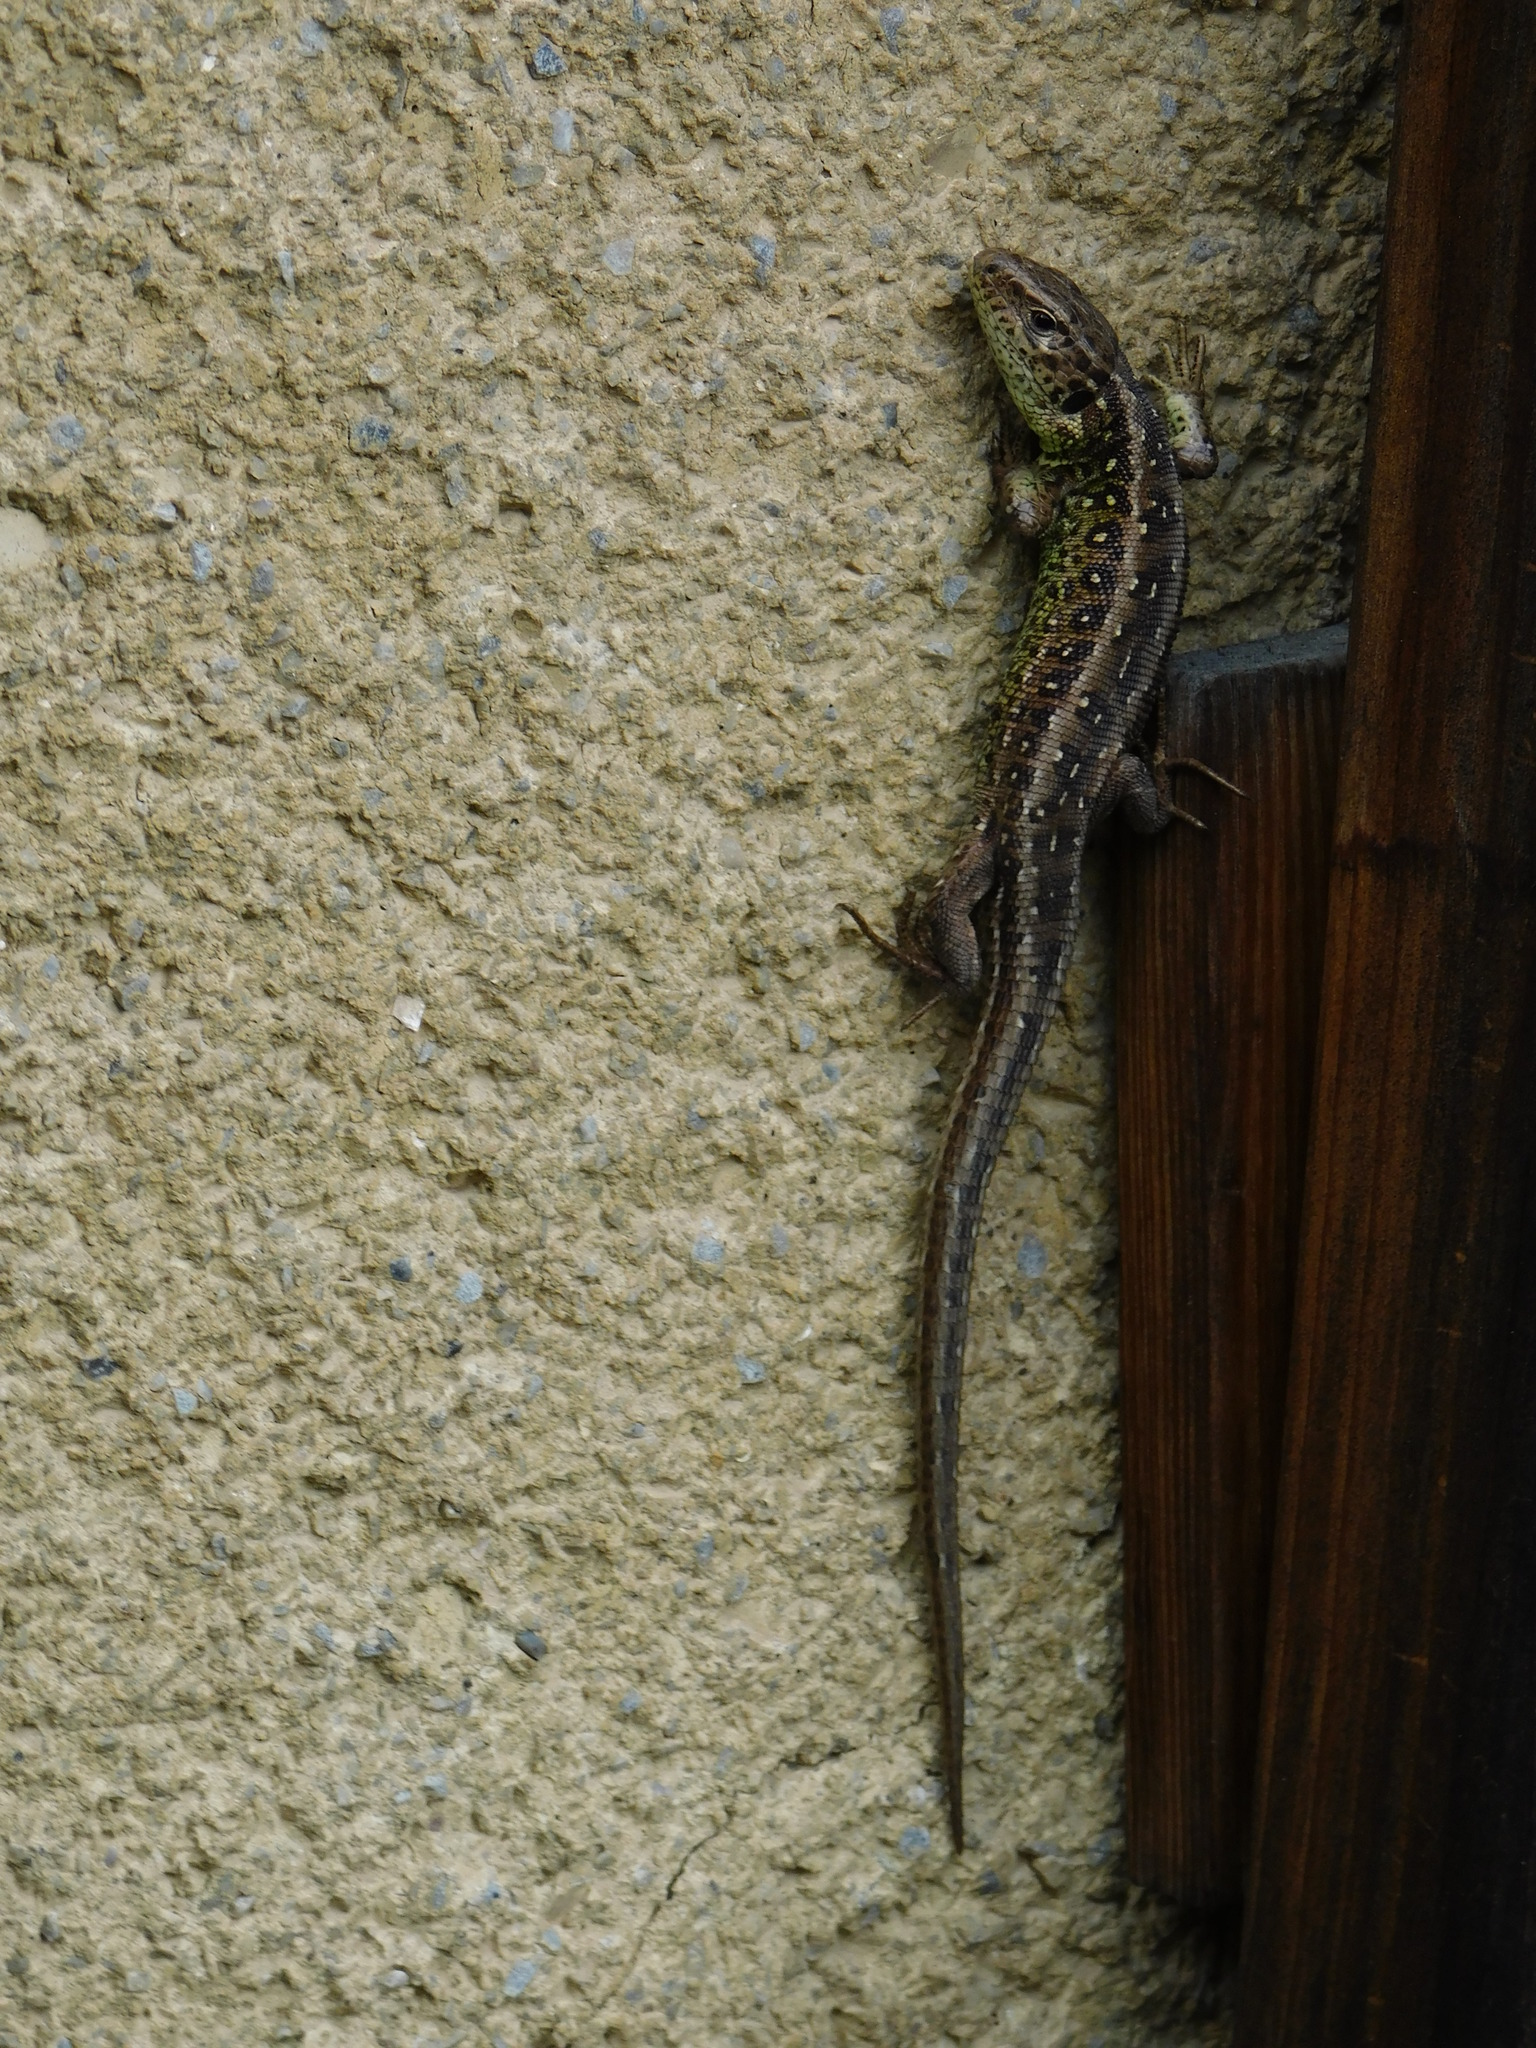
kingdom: Animalia
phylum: Chordata
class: Squamata
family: Lacertidae
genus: Lacerta
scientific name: Lacerta agilis
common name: Sand lizard
